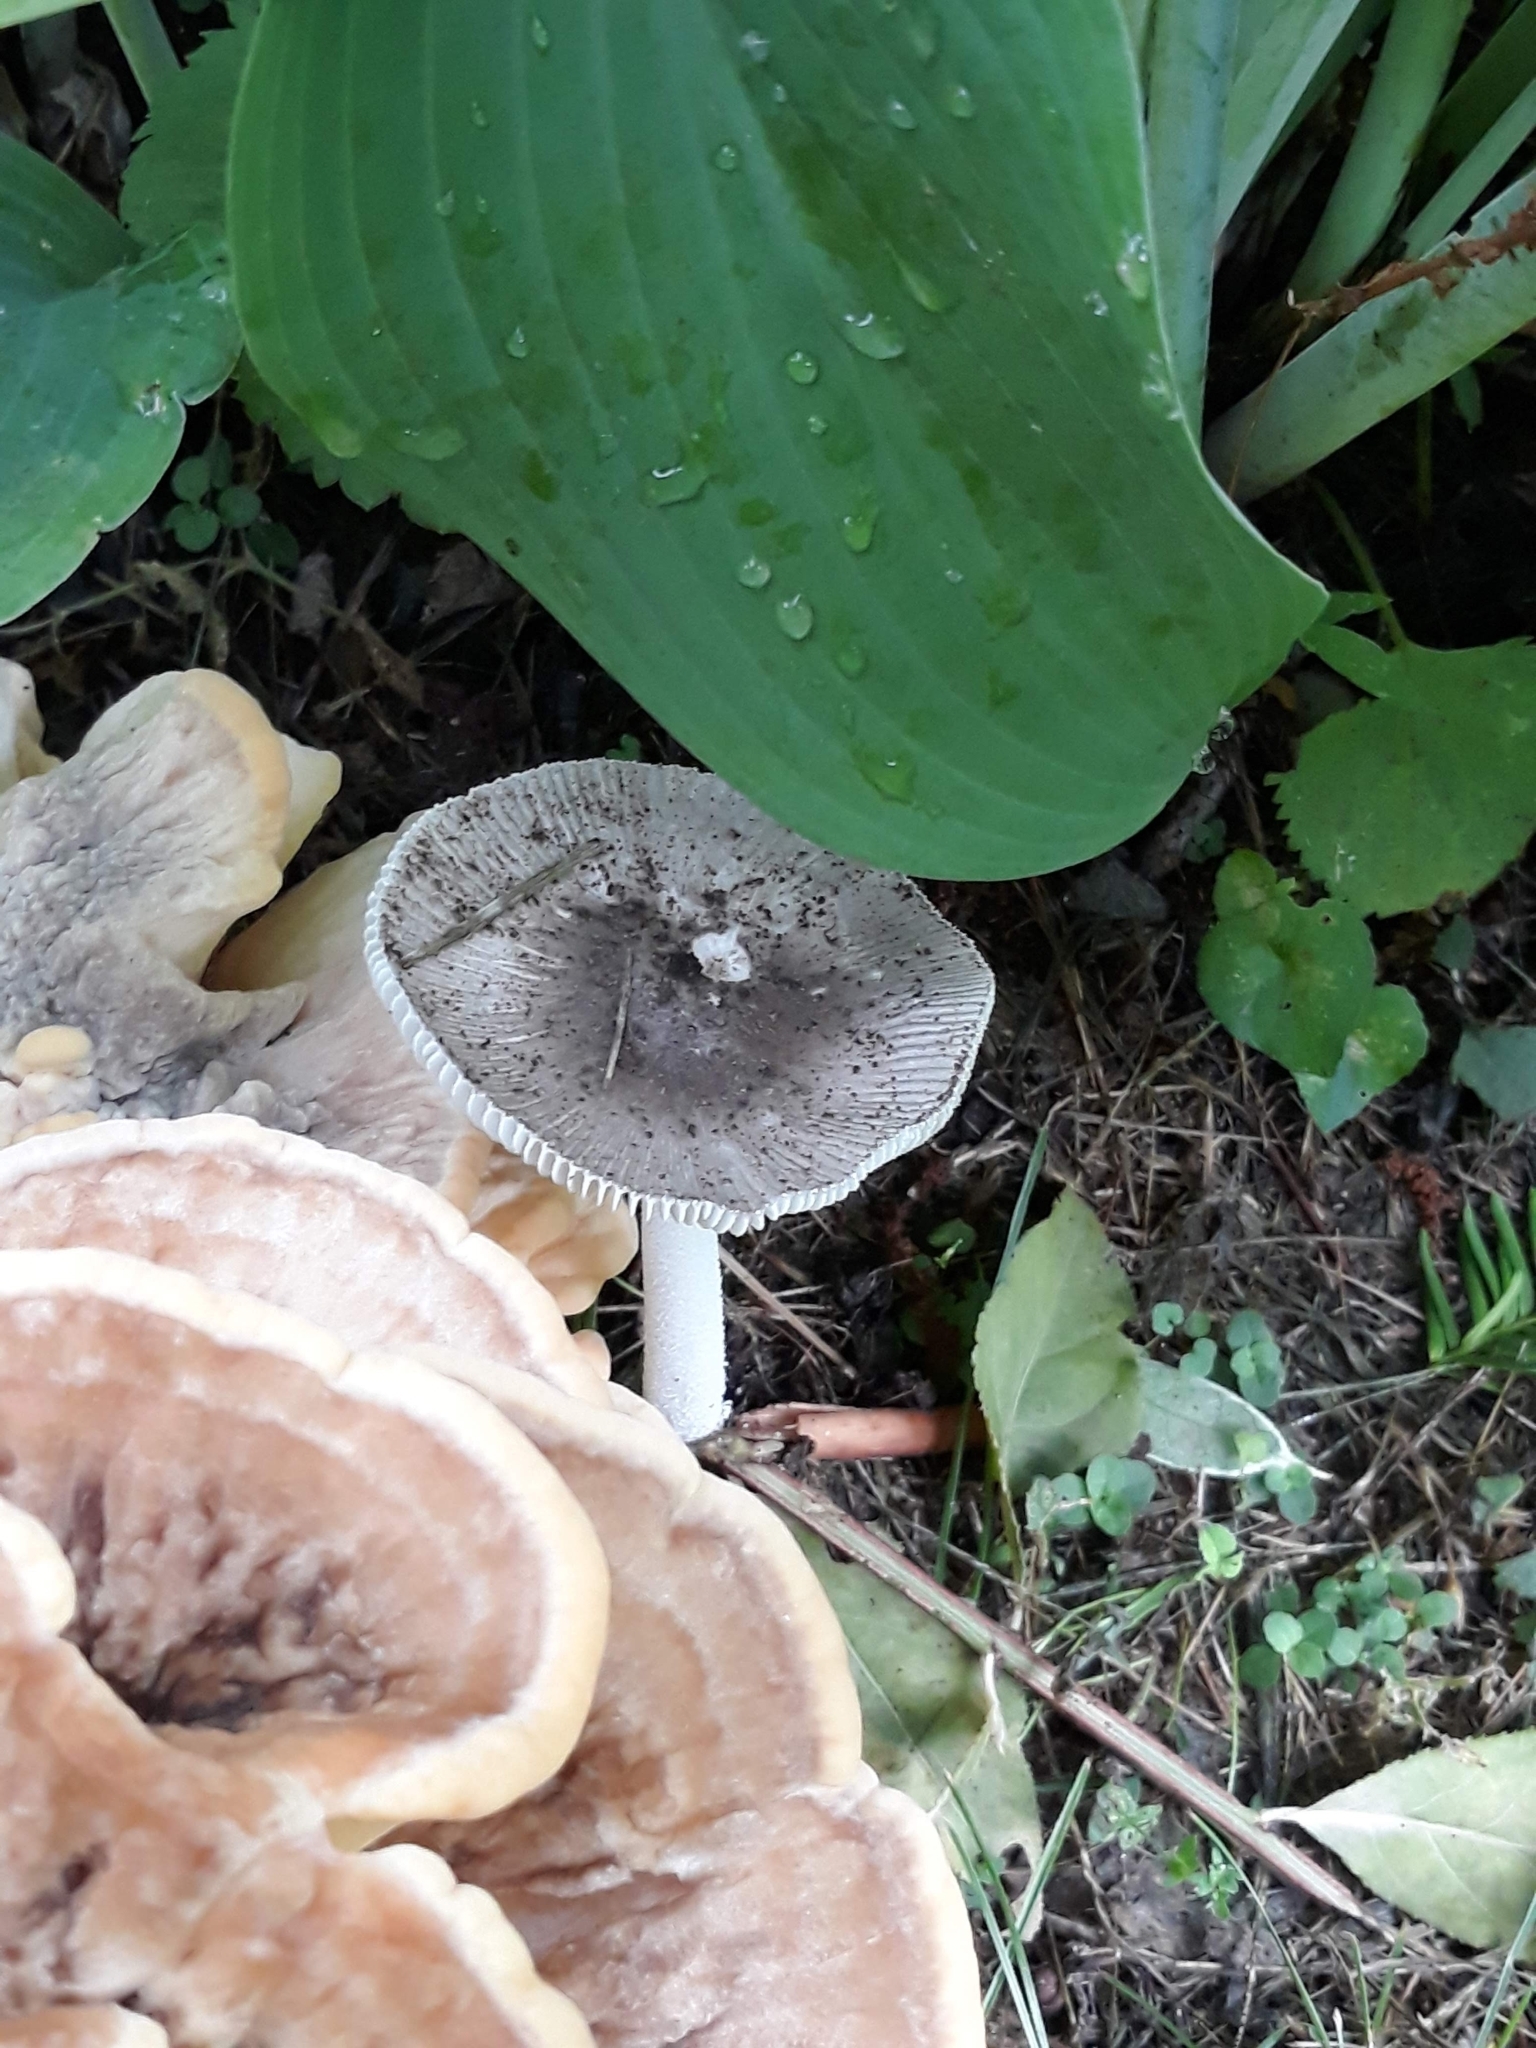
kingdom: Fungi
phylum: Basidiomycota
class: Agaricomycetes
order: Agaricales
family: Amanitaceae
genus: Amanita
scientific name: Amanita
